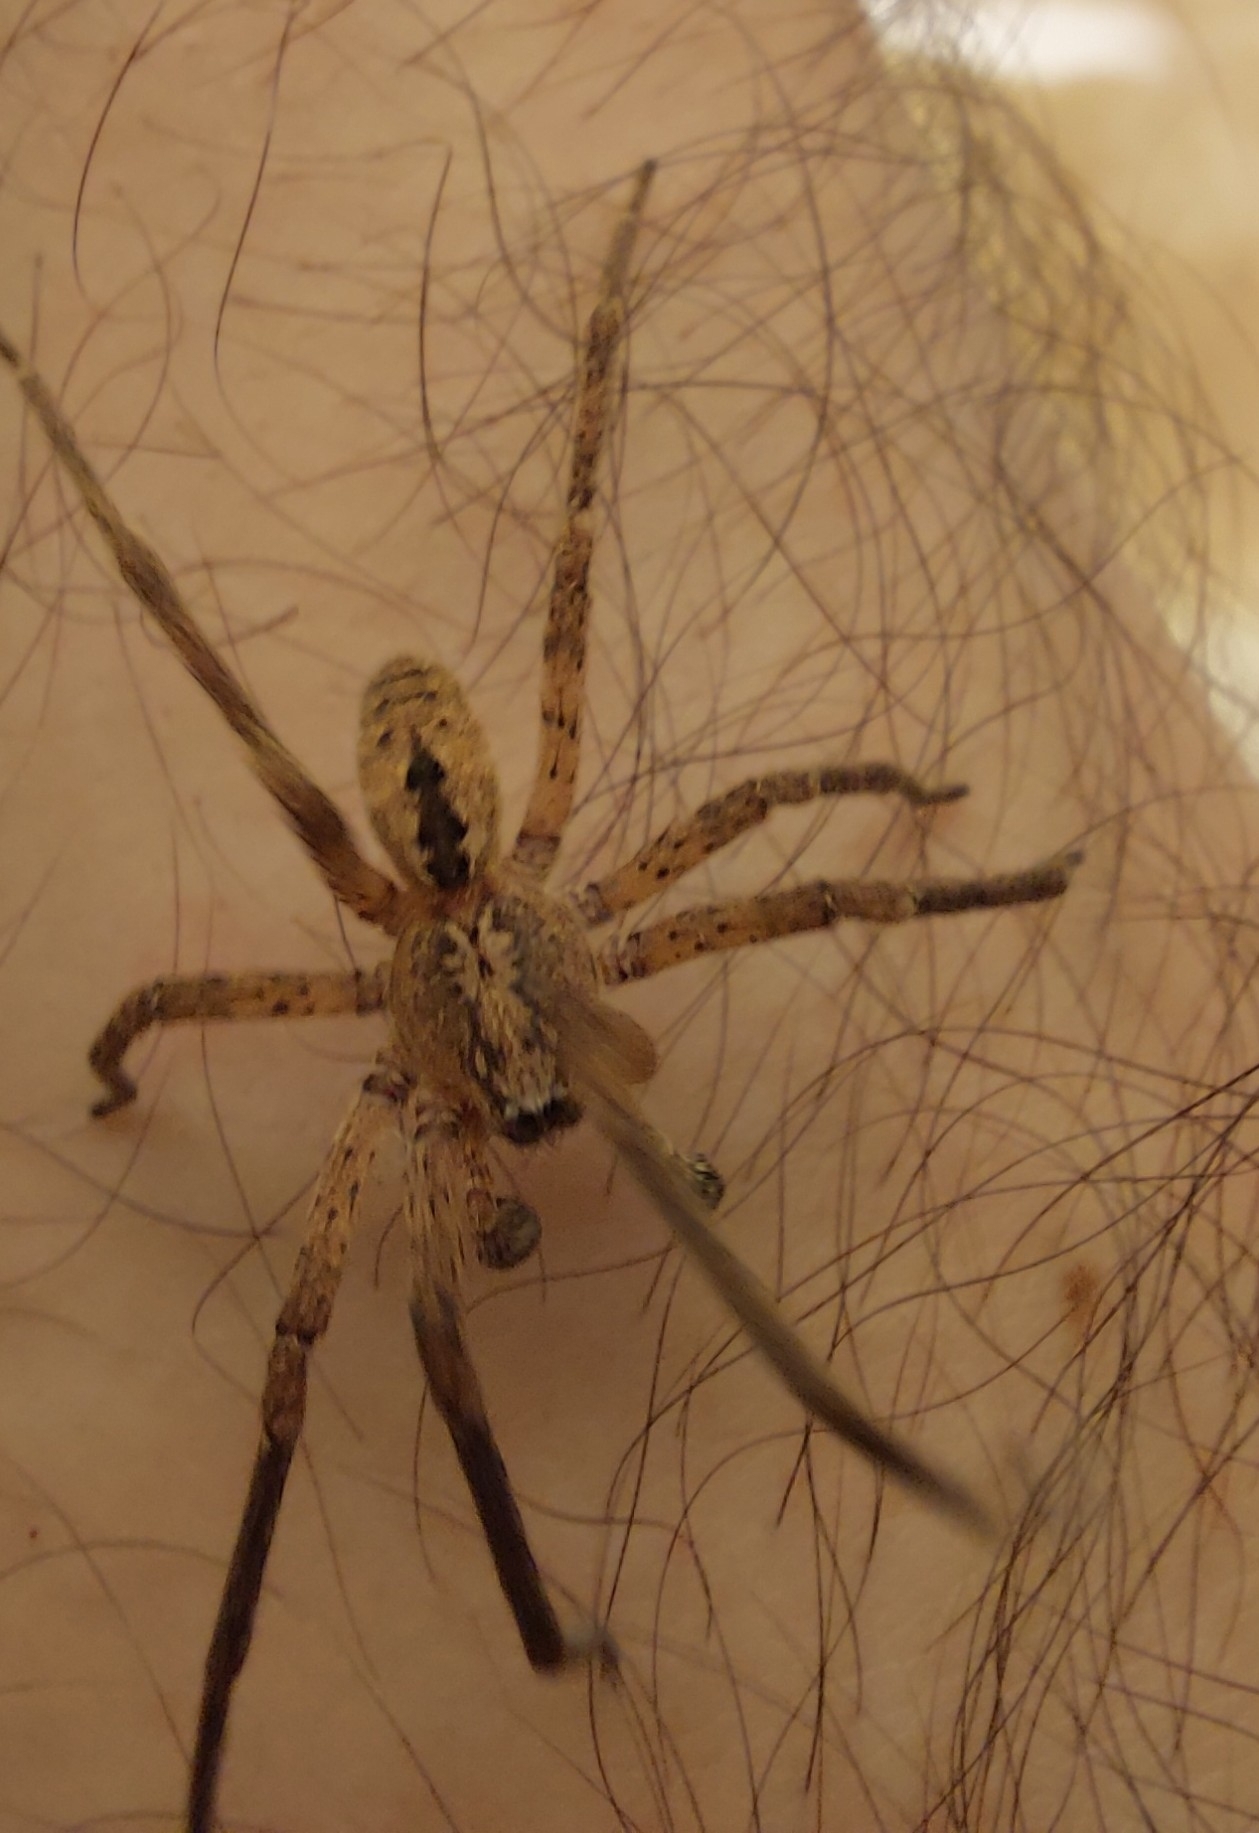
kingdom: Animalia
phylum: Arthropoda
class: Arachnida
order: Araneae
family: Zoropsidae
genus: Zoropsis
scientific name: Zoropsis spinimana
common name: Zoropsid spider
